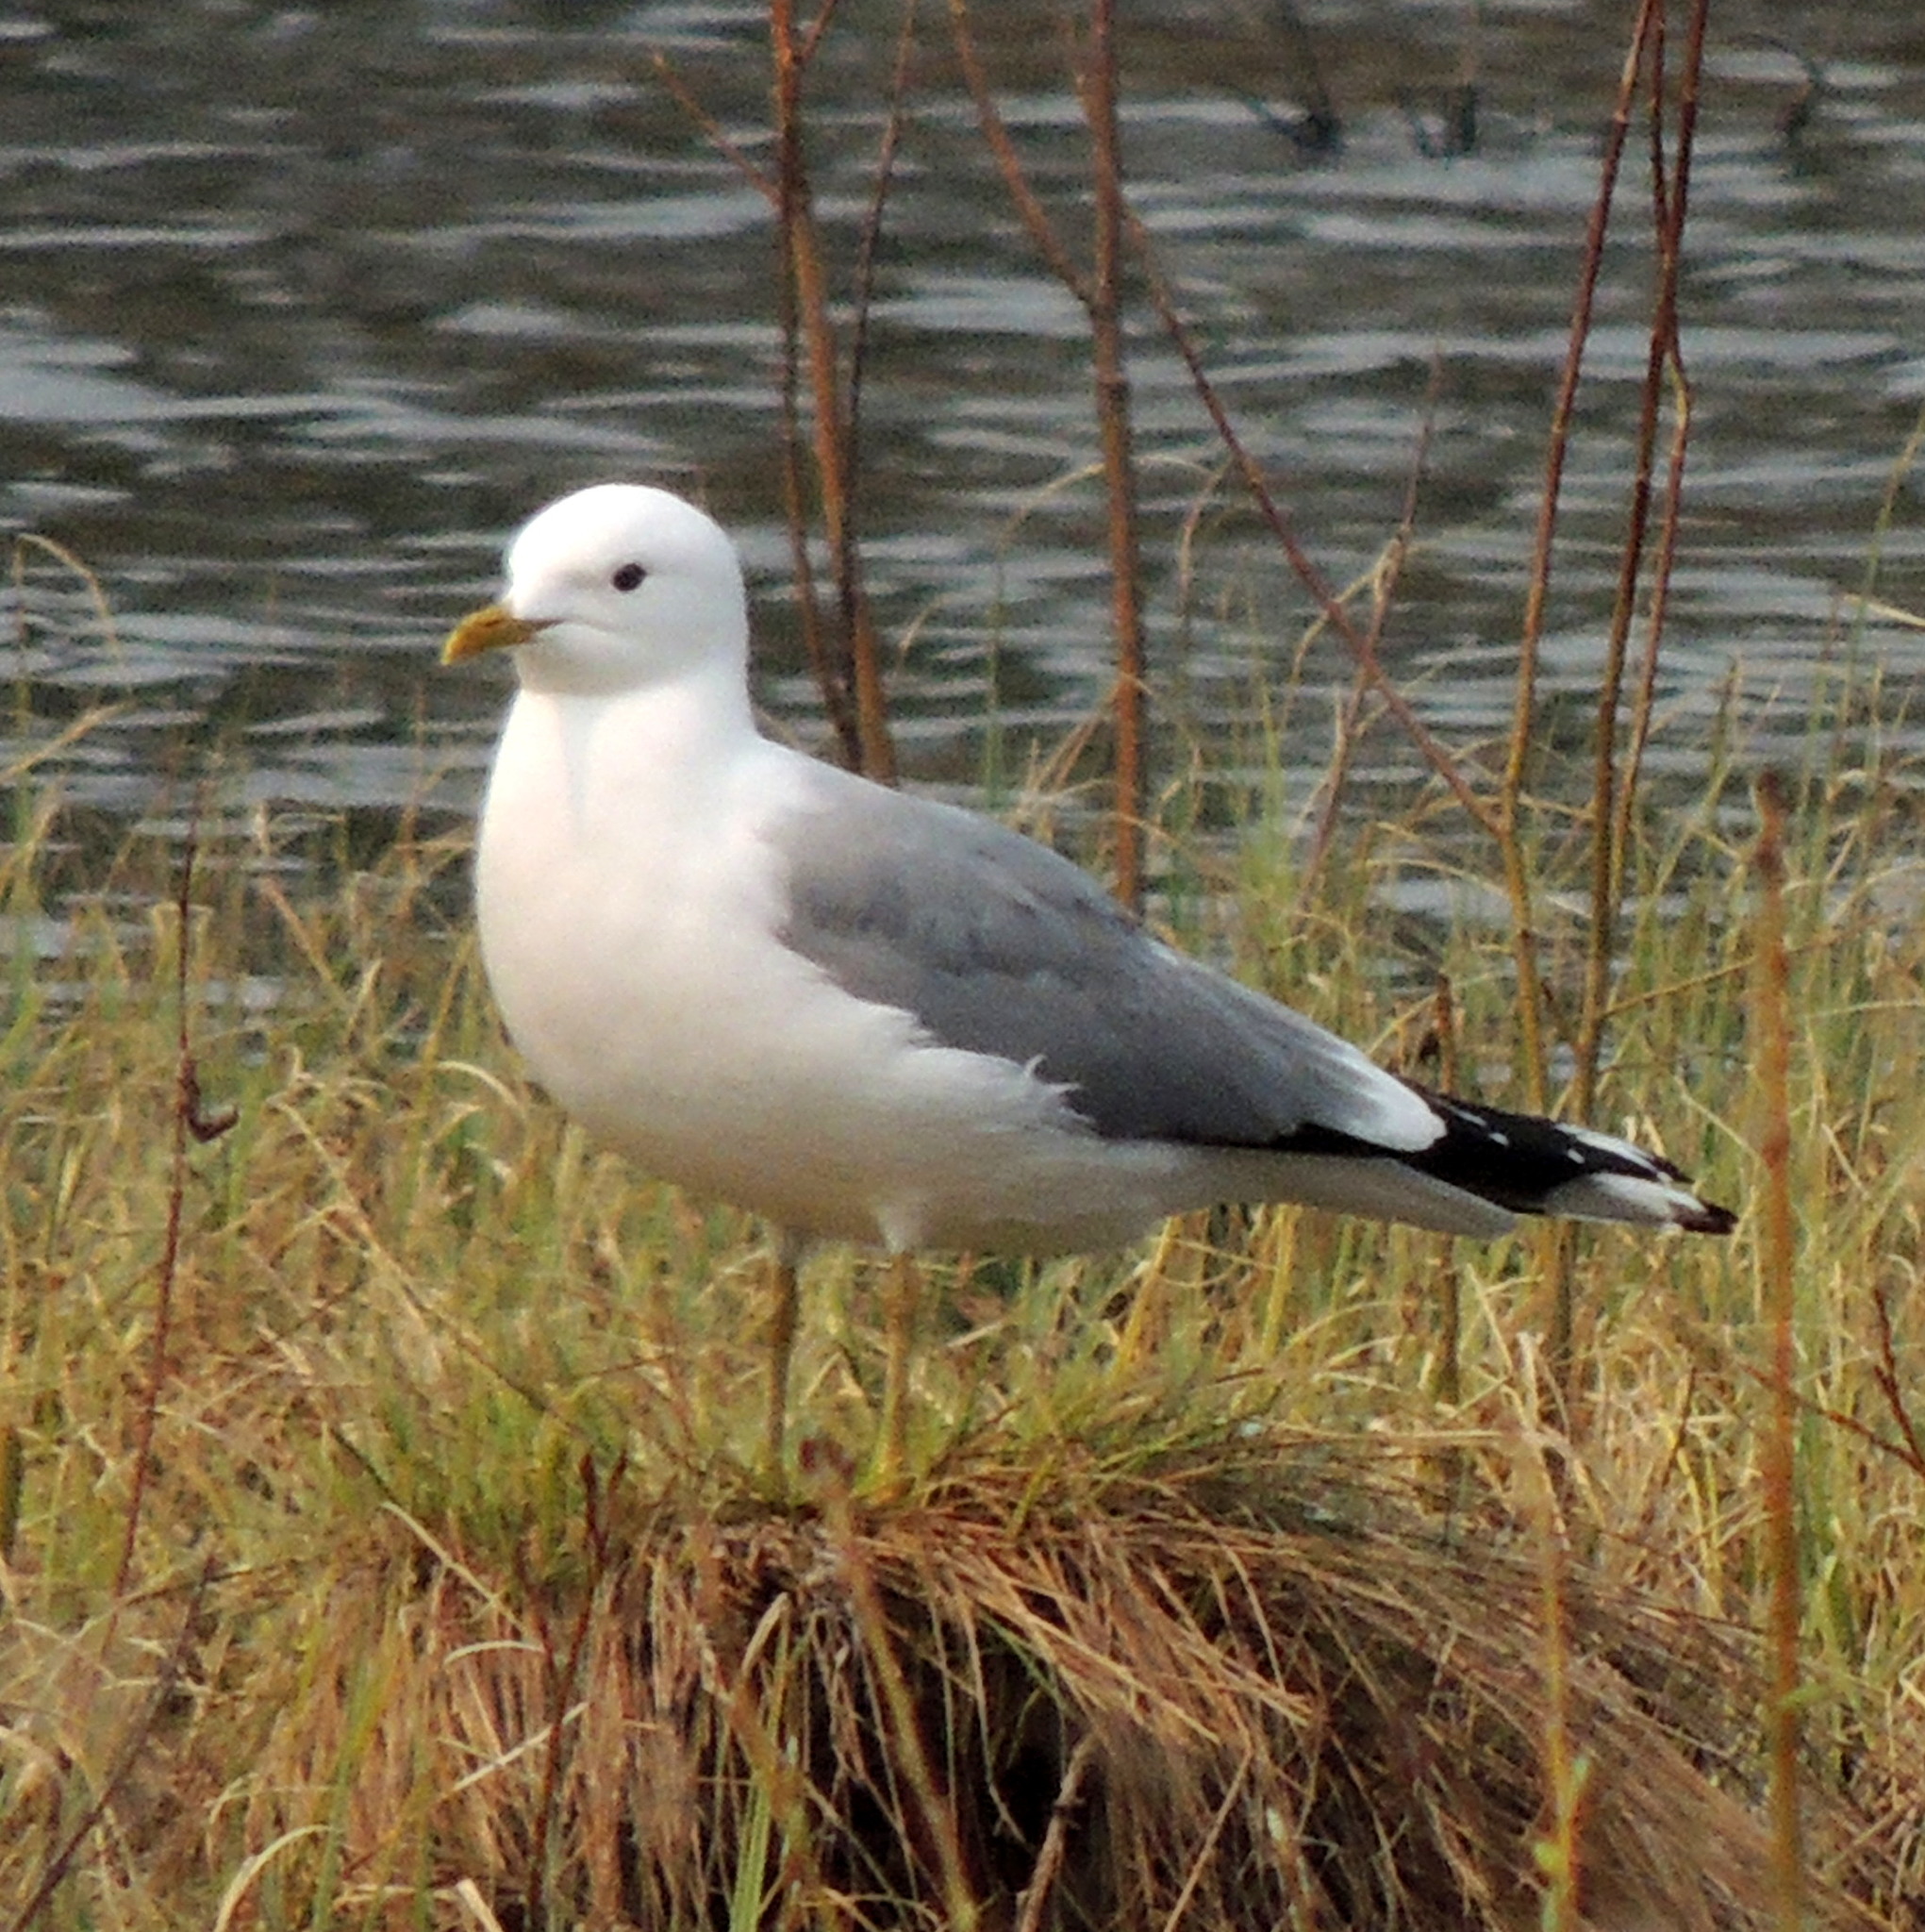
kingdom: Animalia
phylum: Chordata
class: Aves
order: Charadriiformes
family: Laridae
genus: Larus
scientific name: Larus canus
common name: Mew gull
